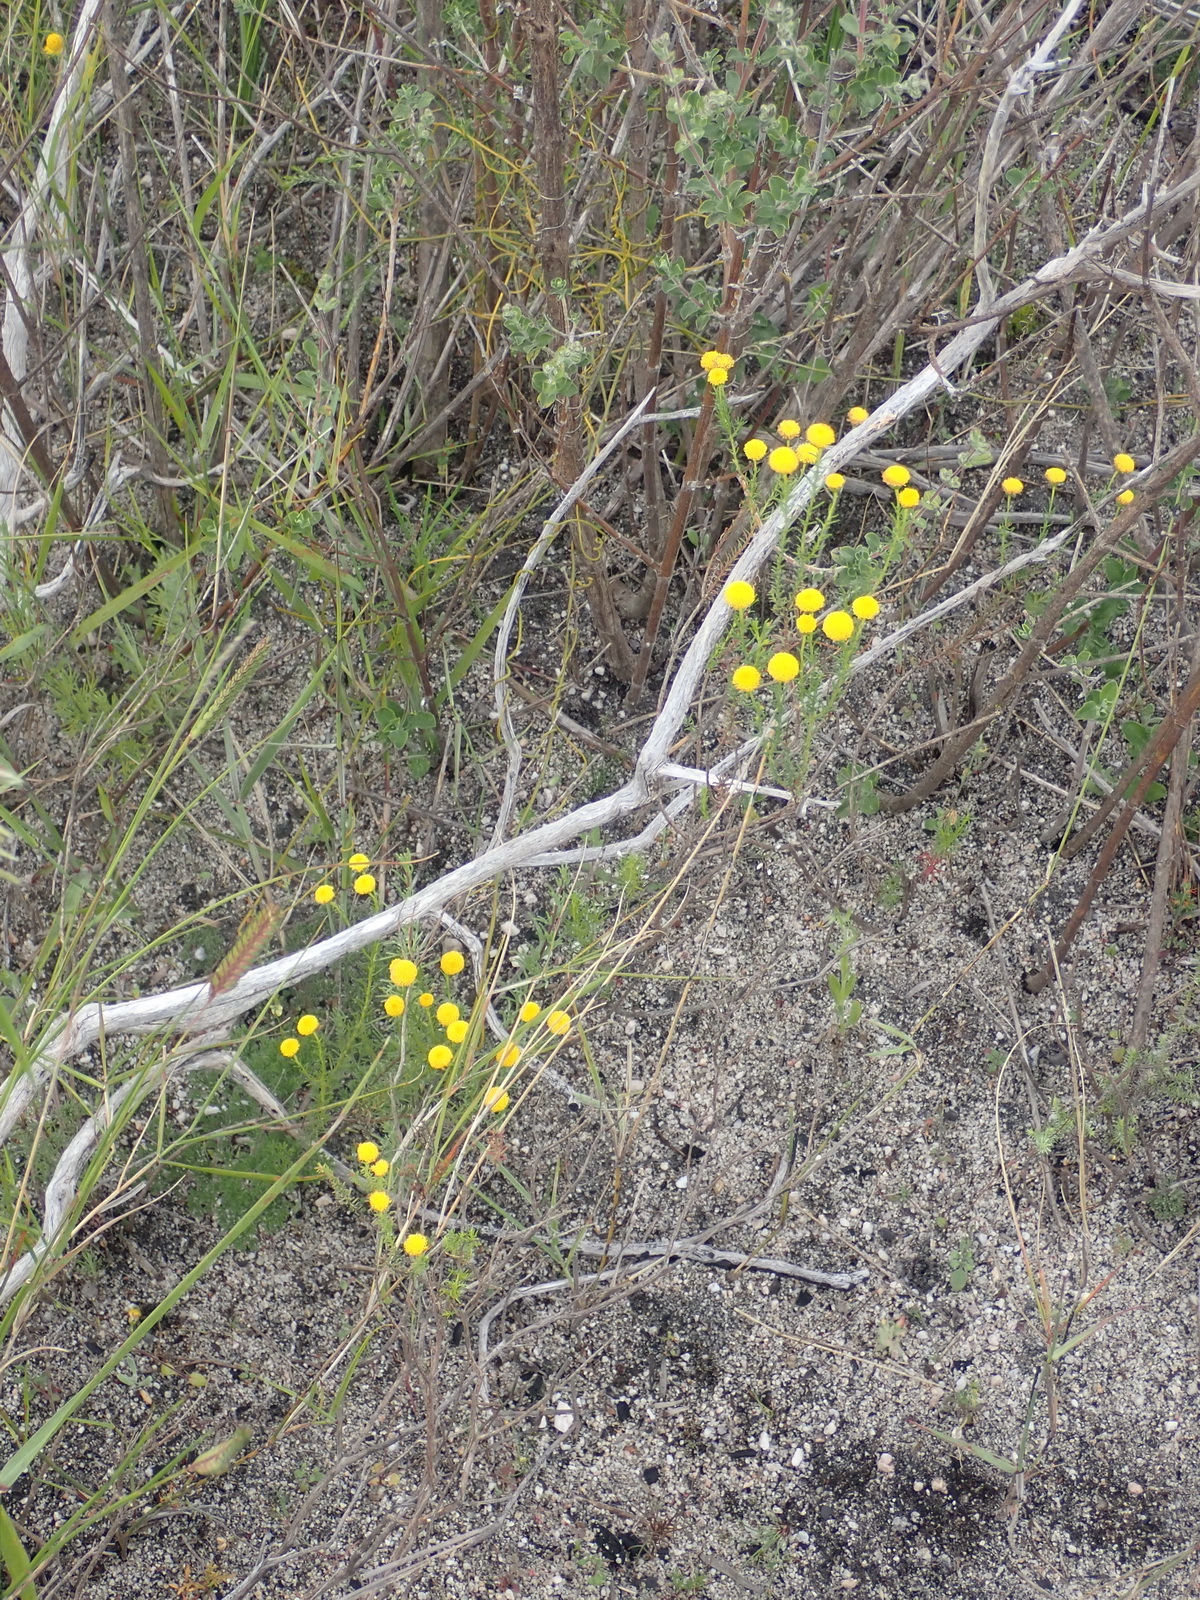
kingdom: Plantae
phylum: Tracheophyta
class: Magnoliopsida
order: Asterales
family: Asteraceae
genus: Chrysocoma
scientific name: Chrysocoma ciliata
